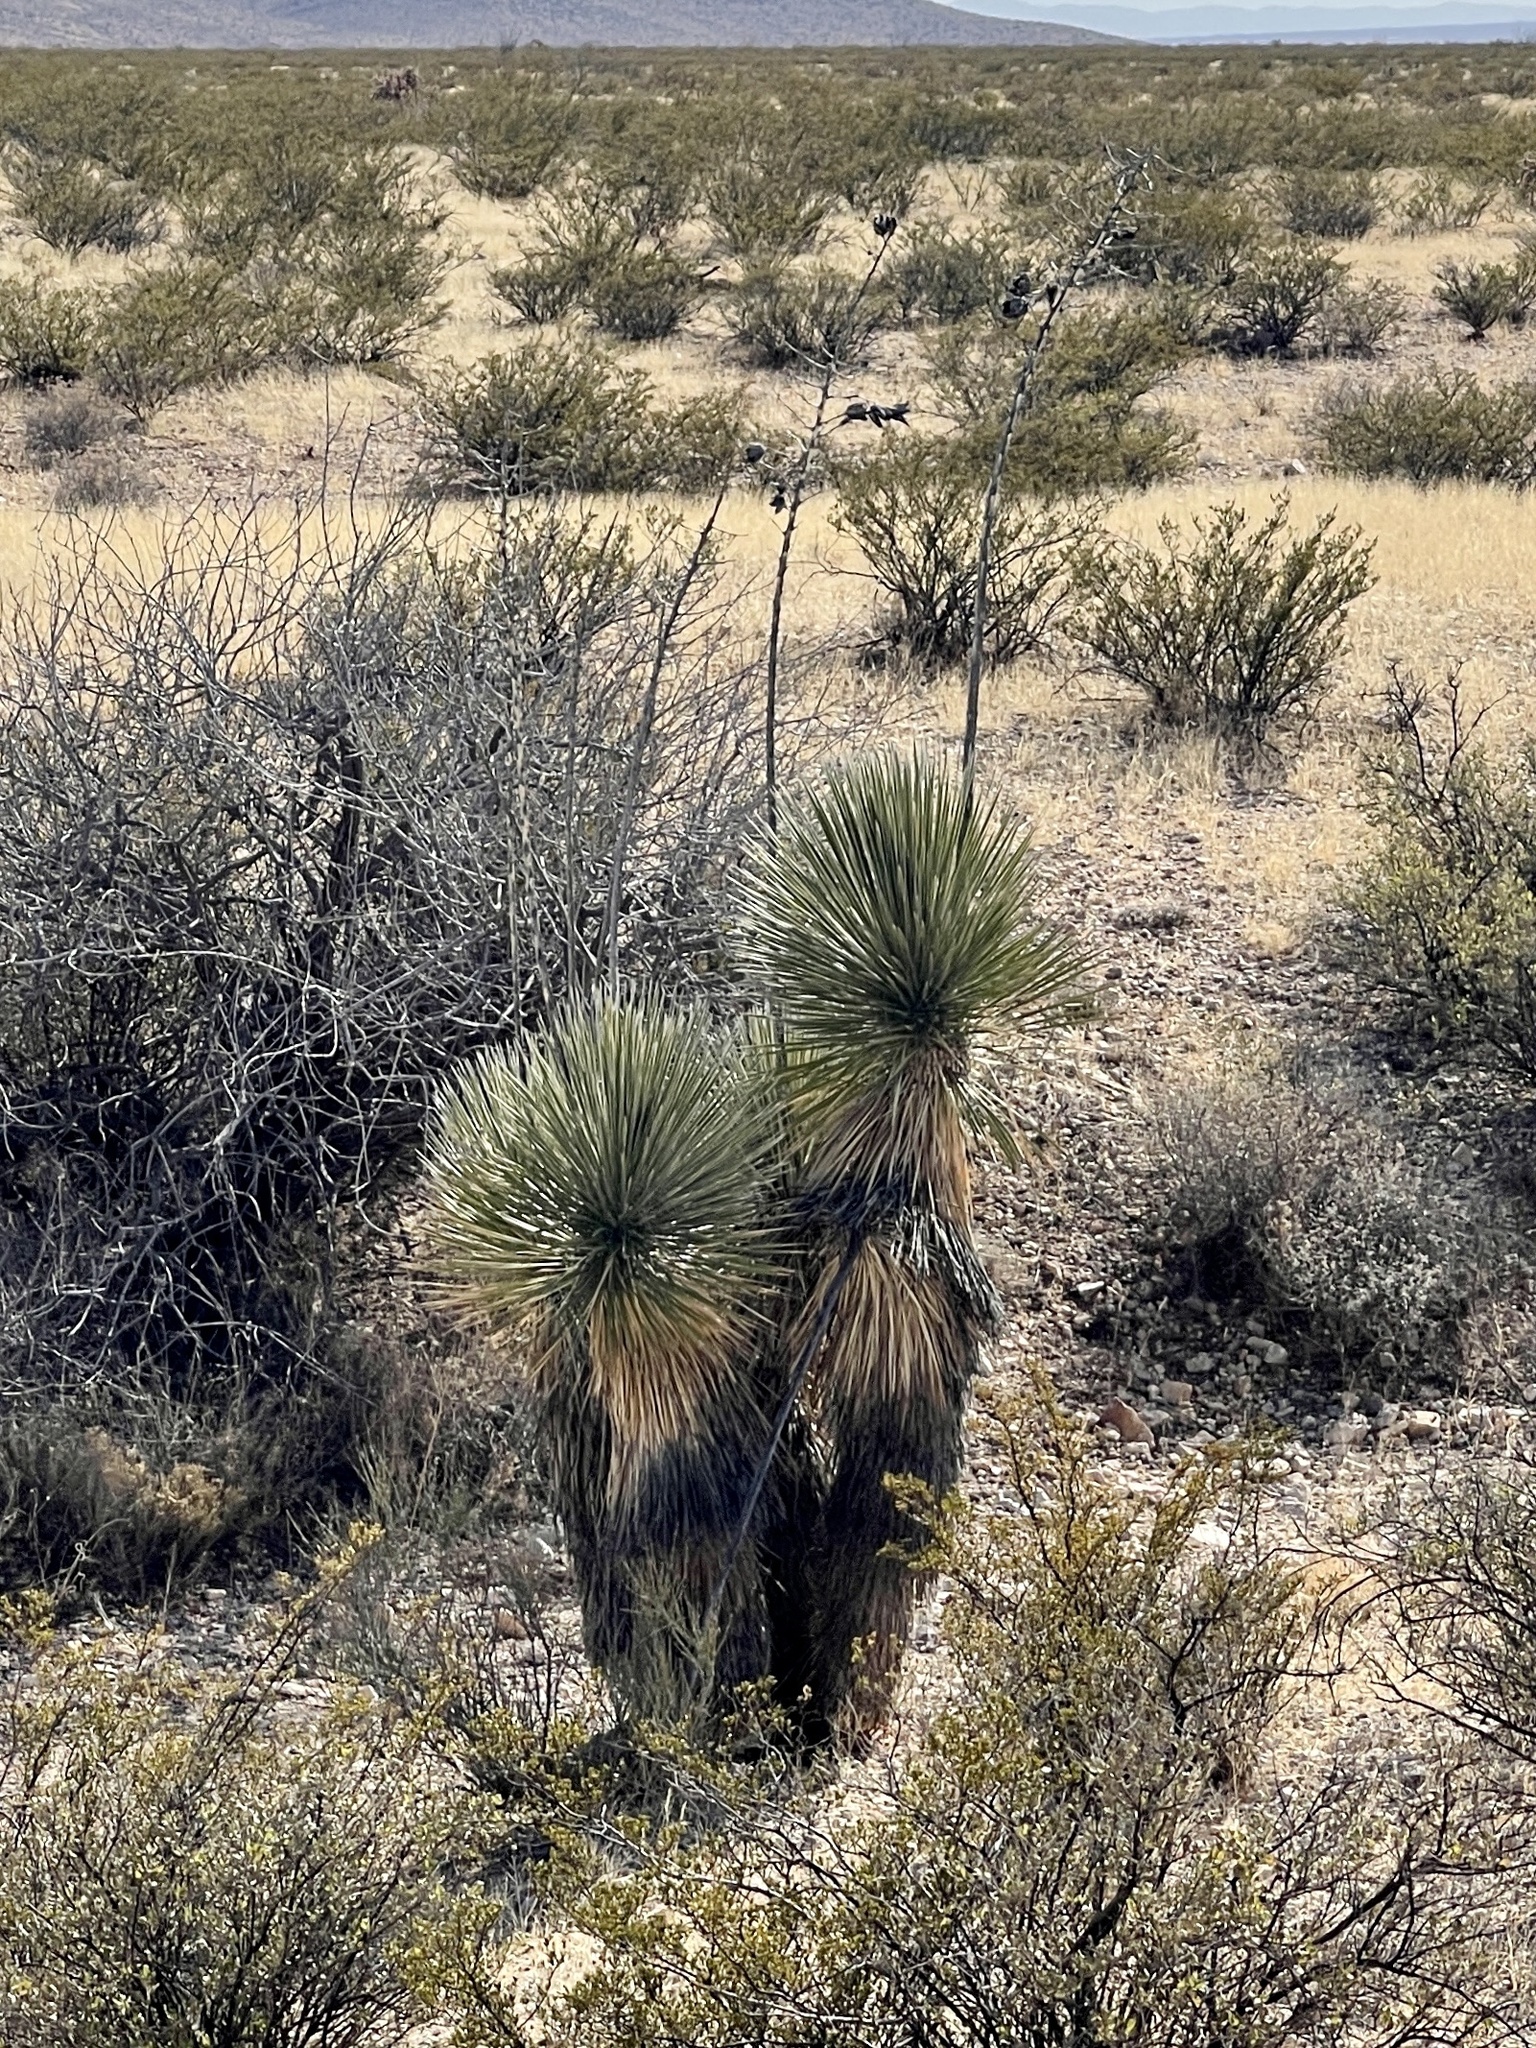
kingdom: Plantae
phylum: Tracheophyta
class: Liliopsida
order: Asparagales
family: Asparagaceae
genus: Yucca
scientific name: Yucca elata
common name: Palmella
